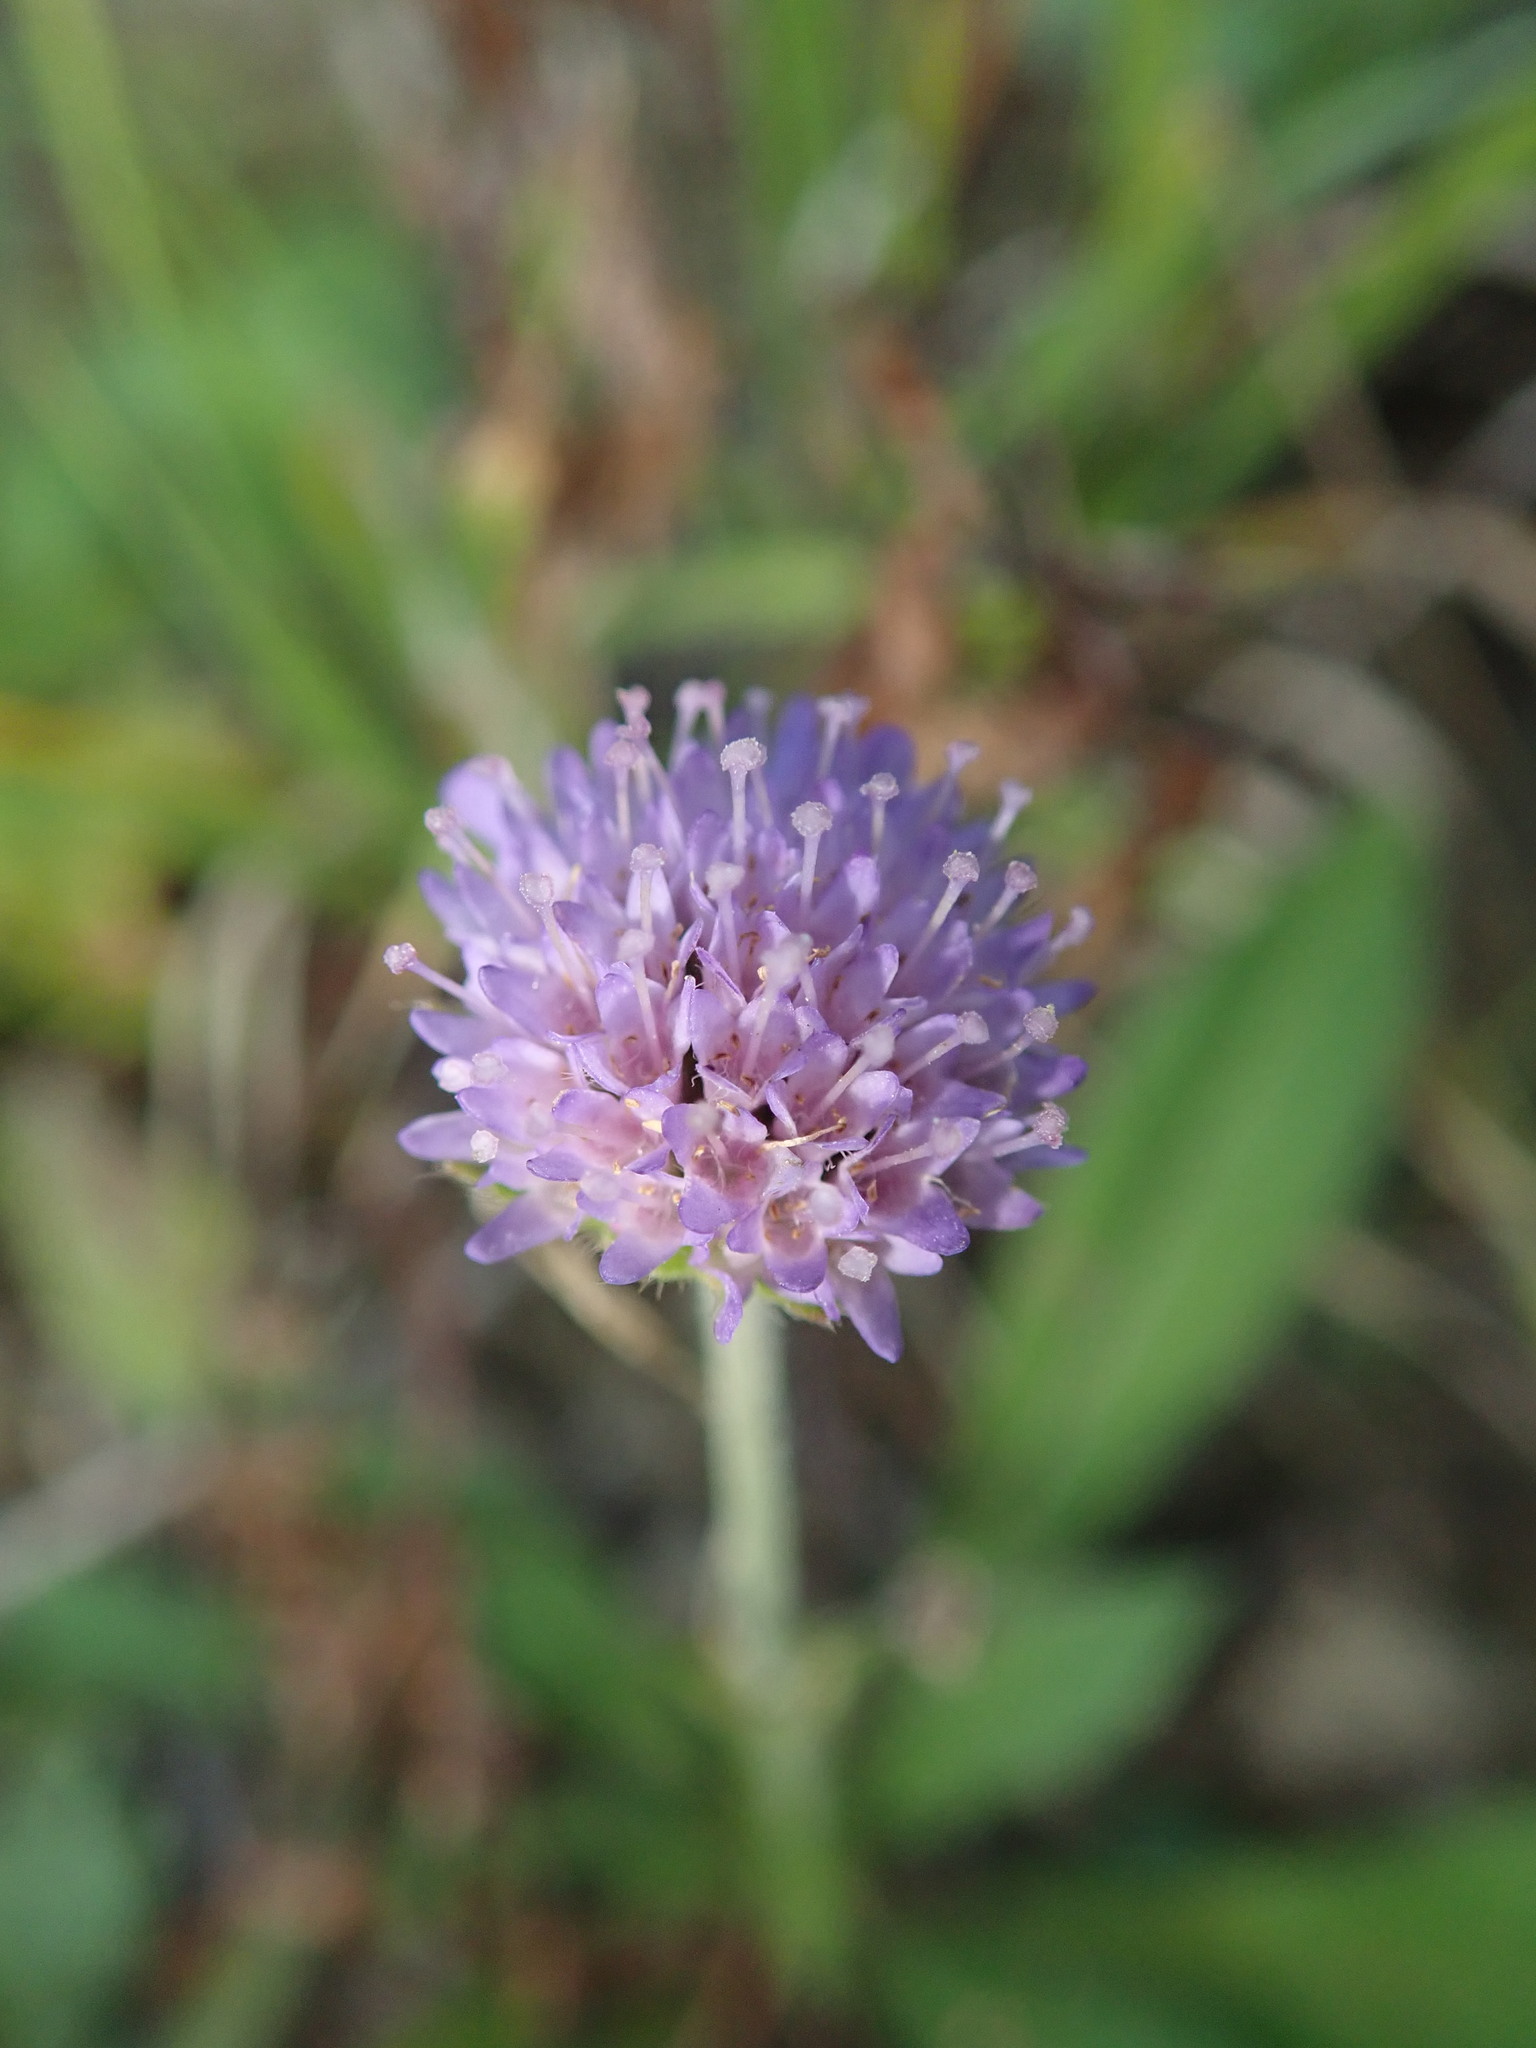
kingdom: Plantae
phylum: Tracheophyta
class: Magnoliopsida
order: Dipsacales
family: Caprifoliaceae
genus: Succisa
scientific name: Succisa pratensis
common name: Devil's-bit
